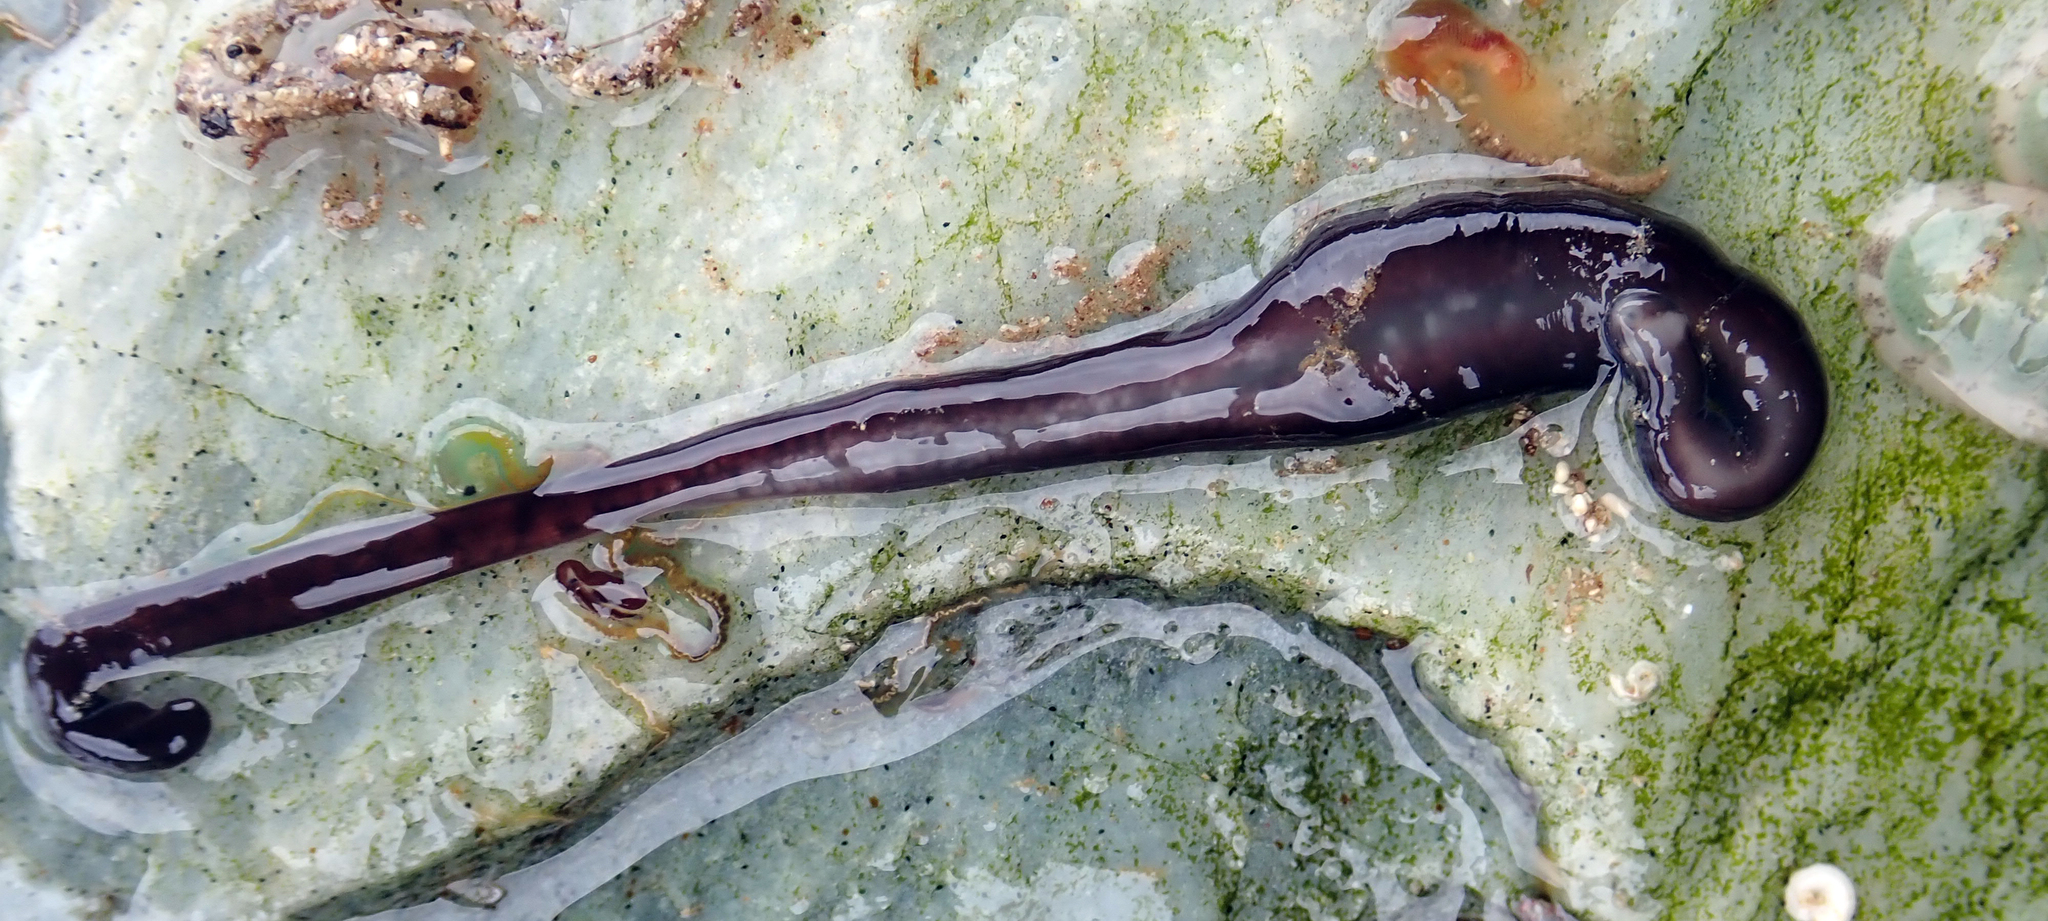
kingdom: Animalia
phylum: Nemertea
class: Hoplonemertea
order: Monostilifera
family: Neesiidae
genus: Noteonemertes
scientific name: Noteonemertes novaezealandiae
